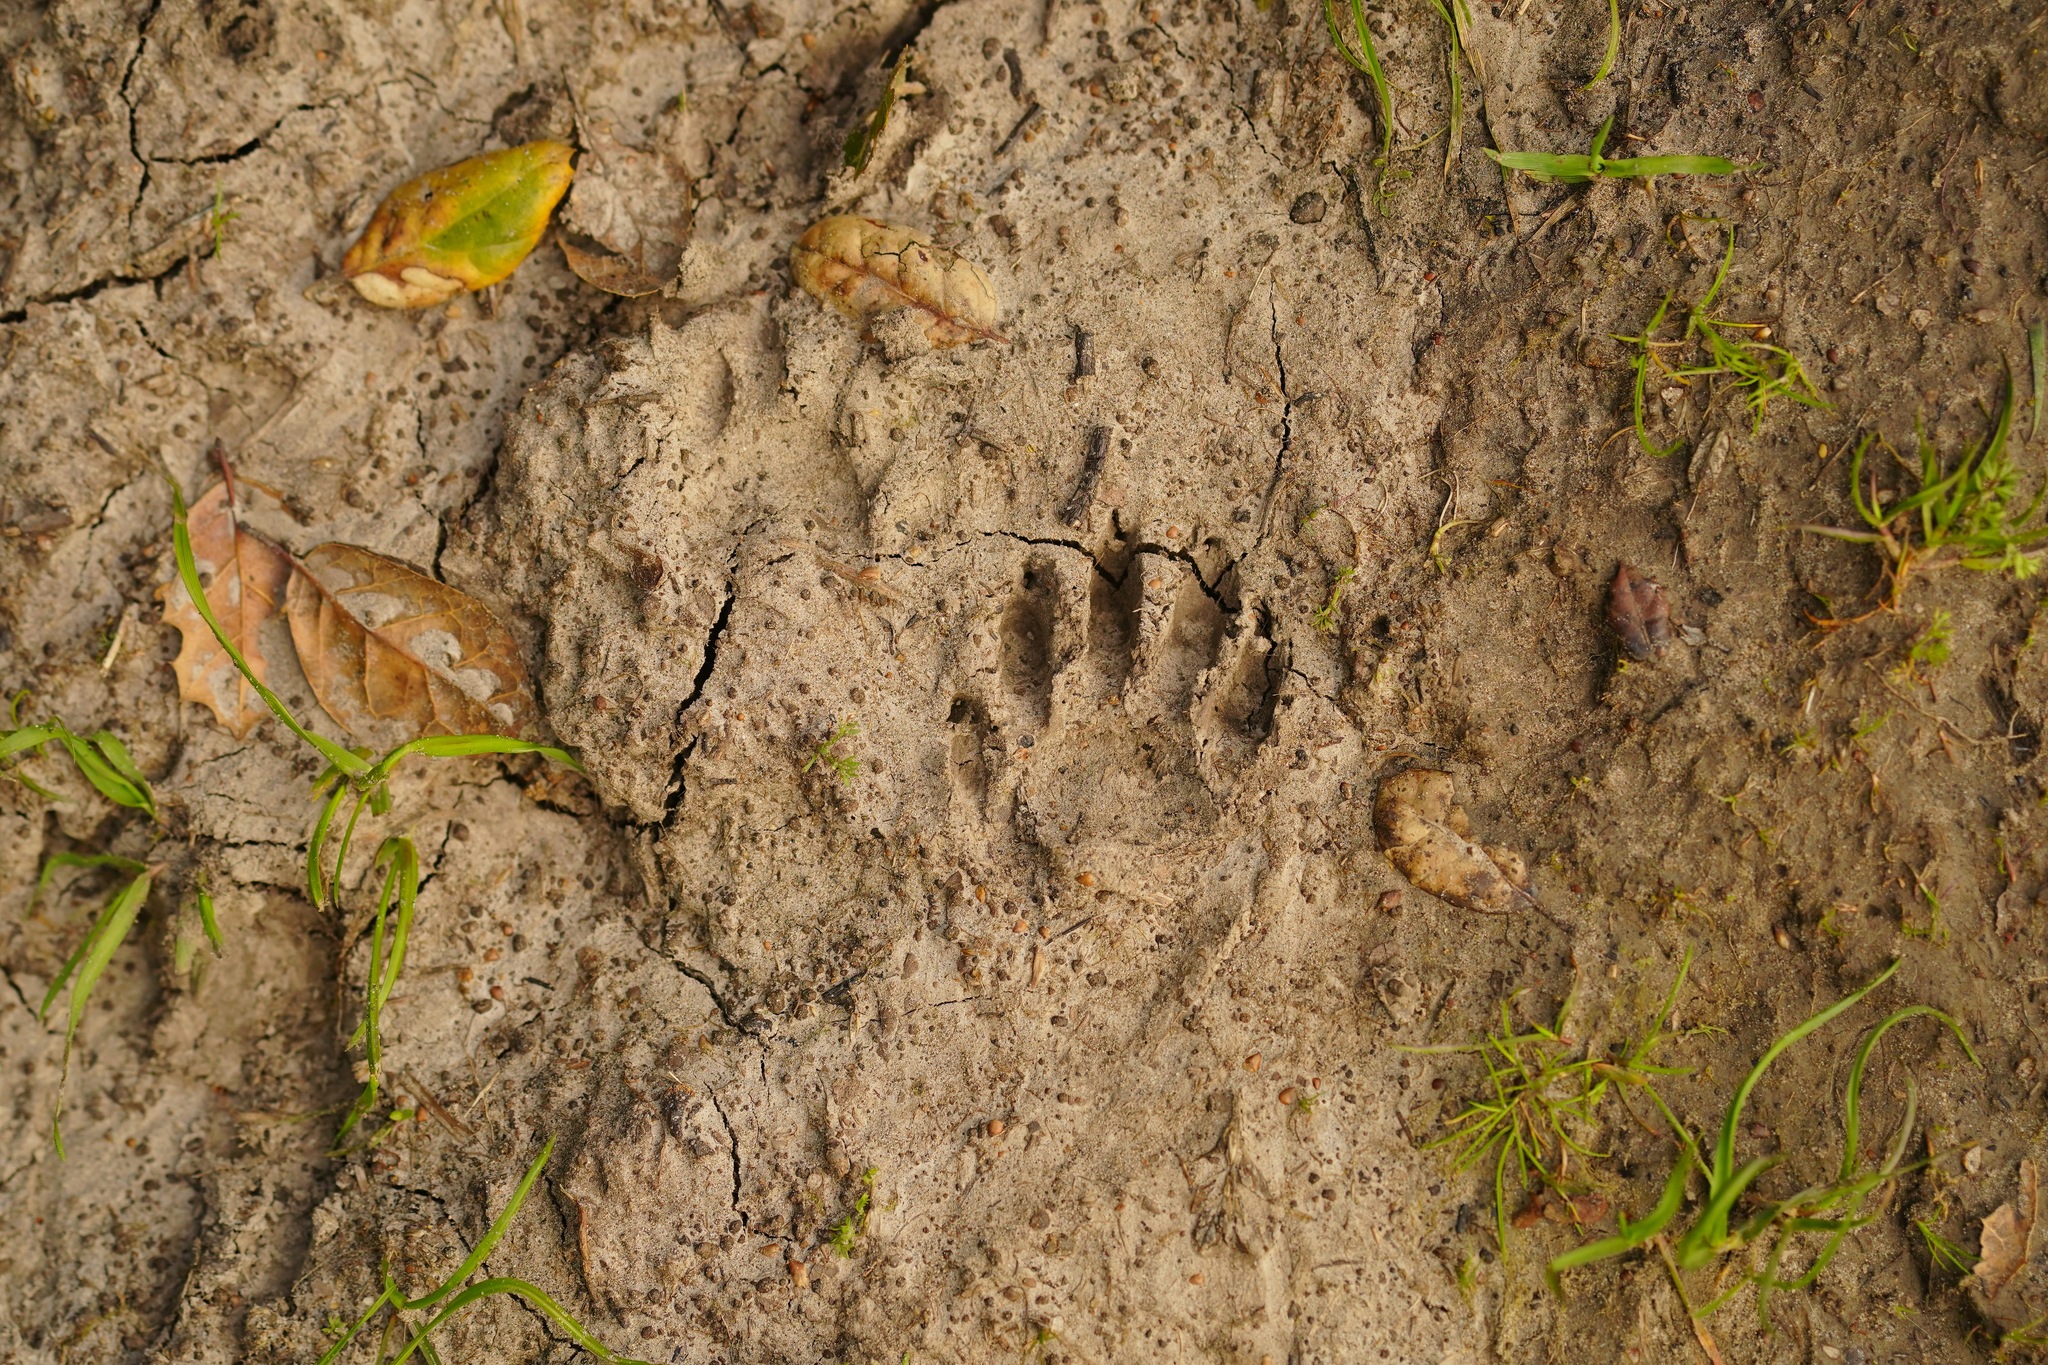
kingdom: Animalia
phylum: Chordata
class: Mammalia
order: Carnivora
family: Procyonidae
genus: Procyon
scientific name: Procyon lotor
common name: Raccoon
